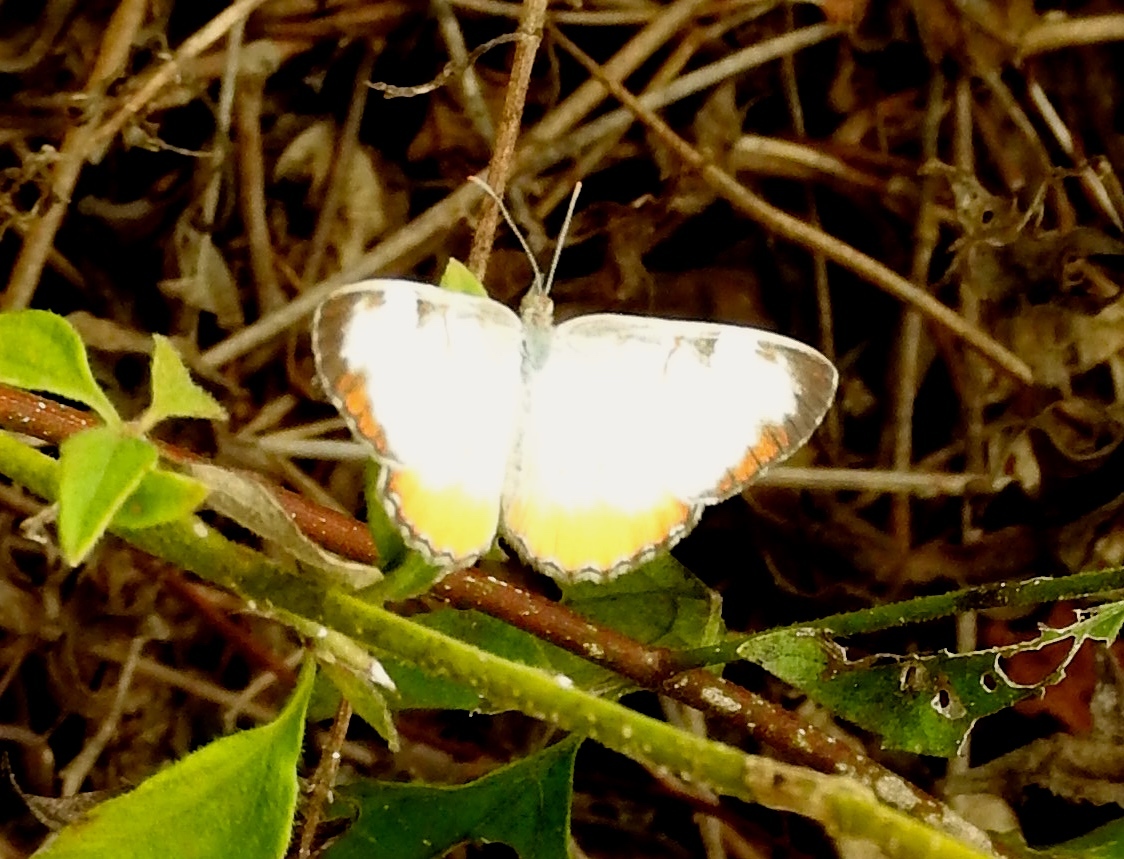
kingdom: Animalia
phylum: Arthropoda
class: Insecta
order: Lepidoptera
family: Nymphalidae
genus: Mestra
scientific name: Mestra amymone
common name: Common mestra
